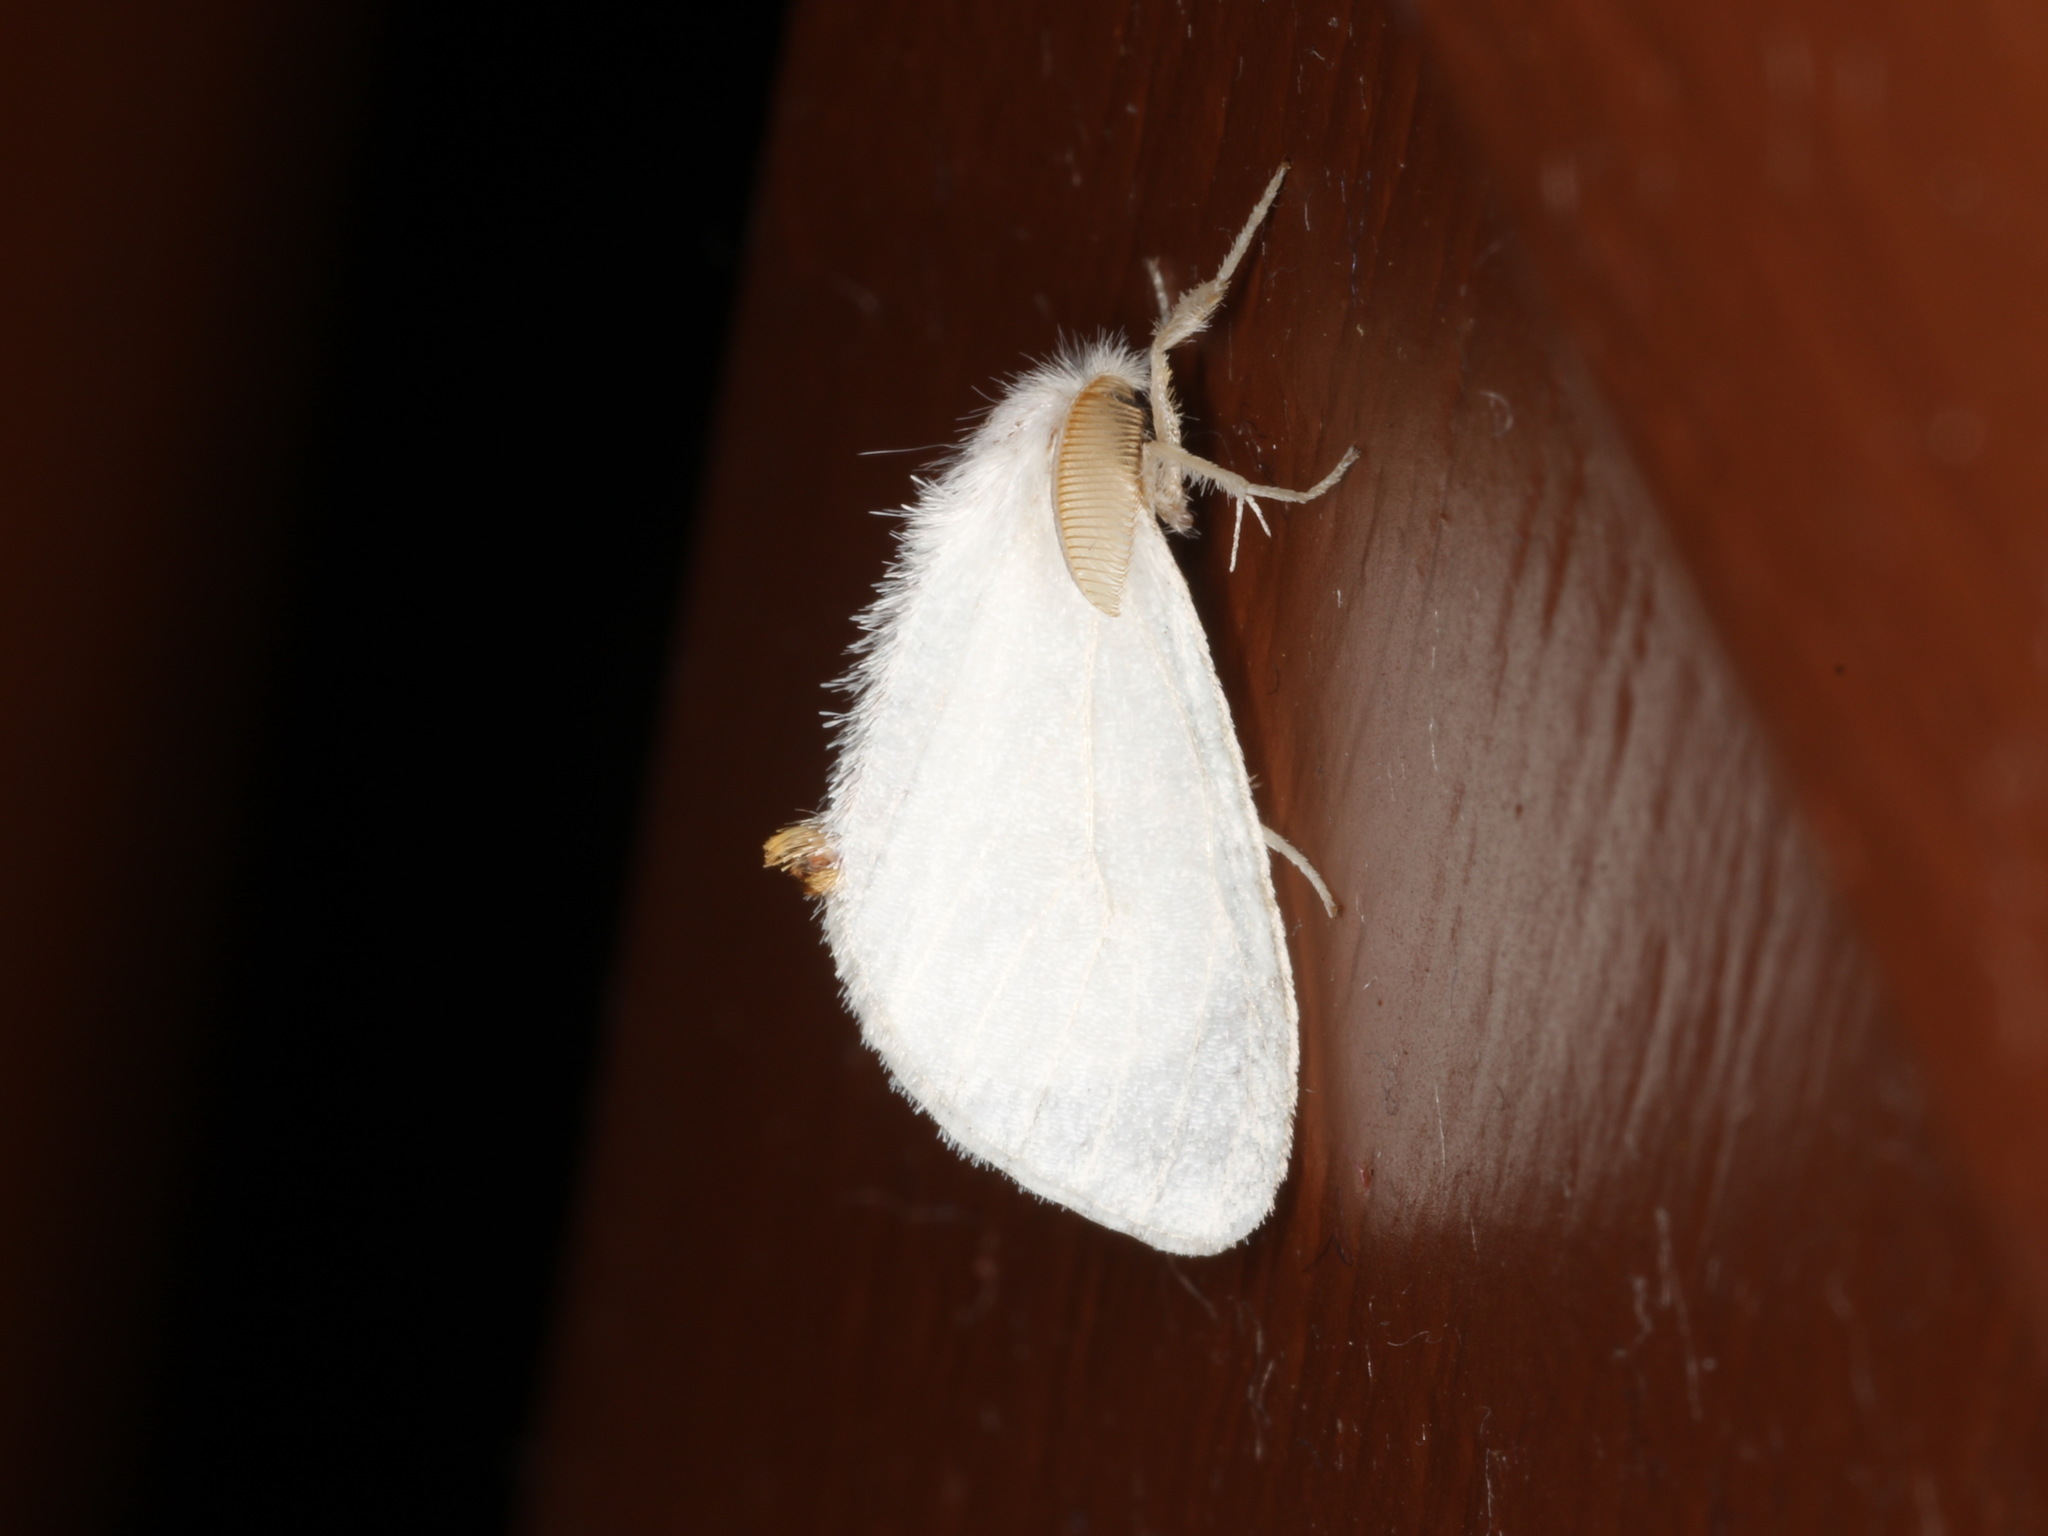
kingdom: Animalia
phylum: Arthropoda
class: Insecta
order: Lepidoptera
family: Erebidae
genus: Acyphas
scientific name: Acyphas chionitis
